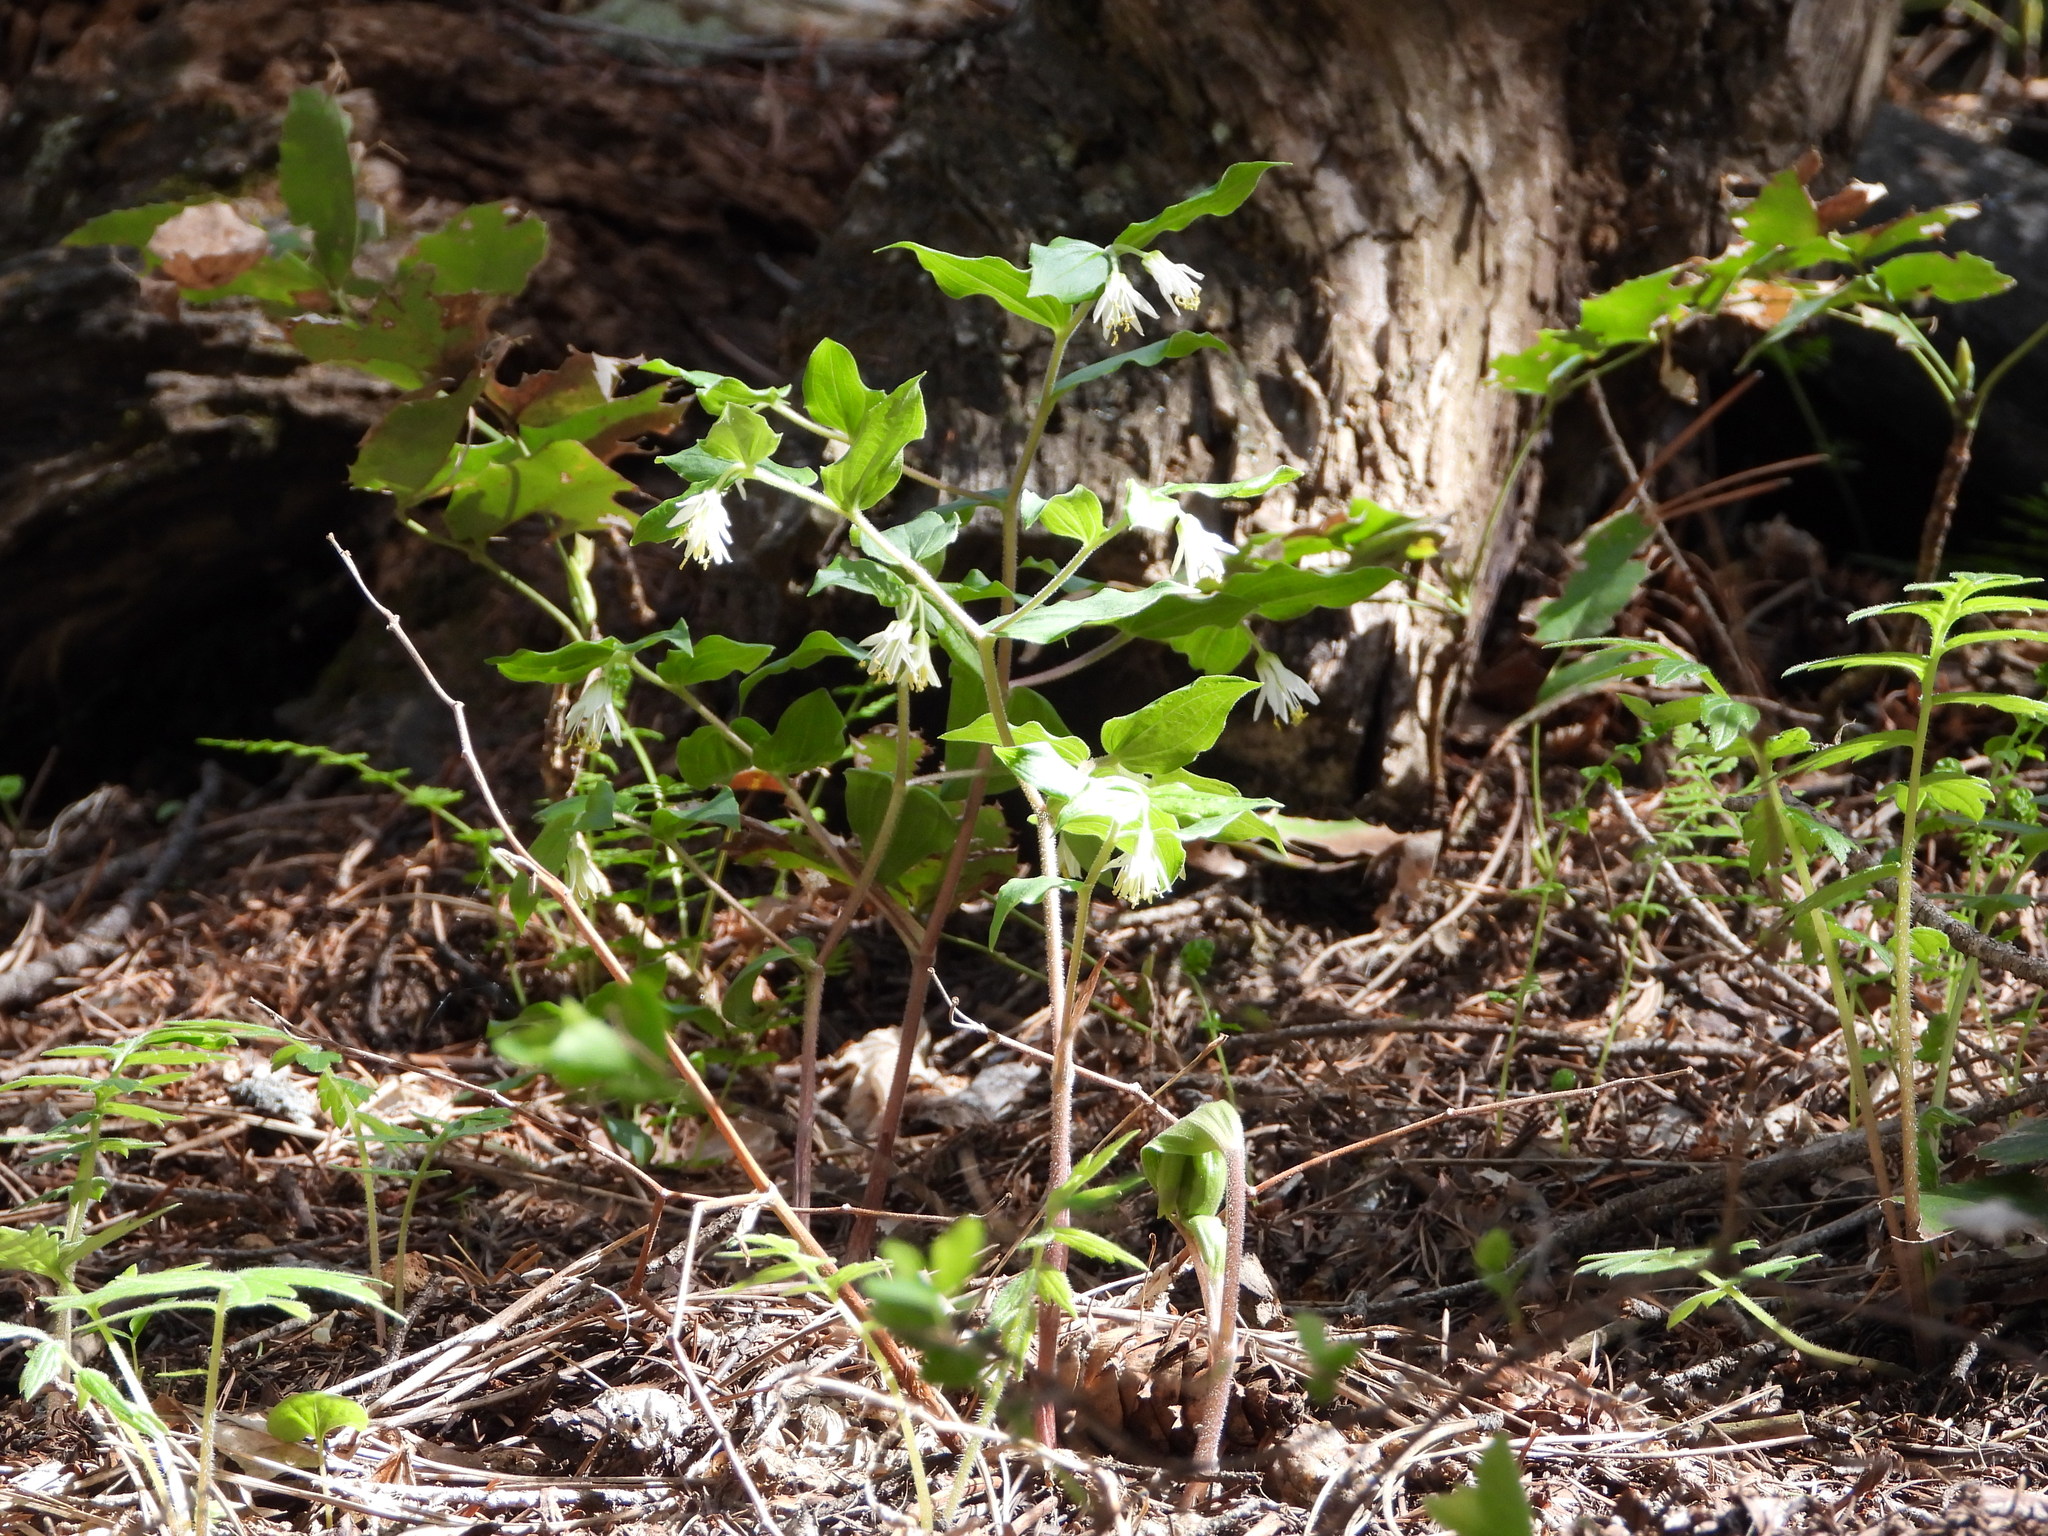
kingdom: Plantae
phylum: Tracheophyta
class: Liliopsida
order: Liliales
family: Liliaceae
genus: Prosartes
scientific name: Prosartes trachycarpa
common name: Rough-fruit fairy-bells
